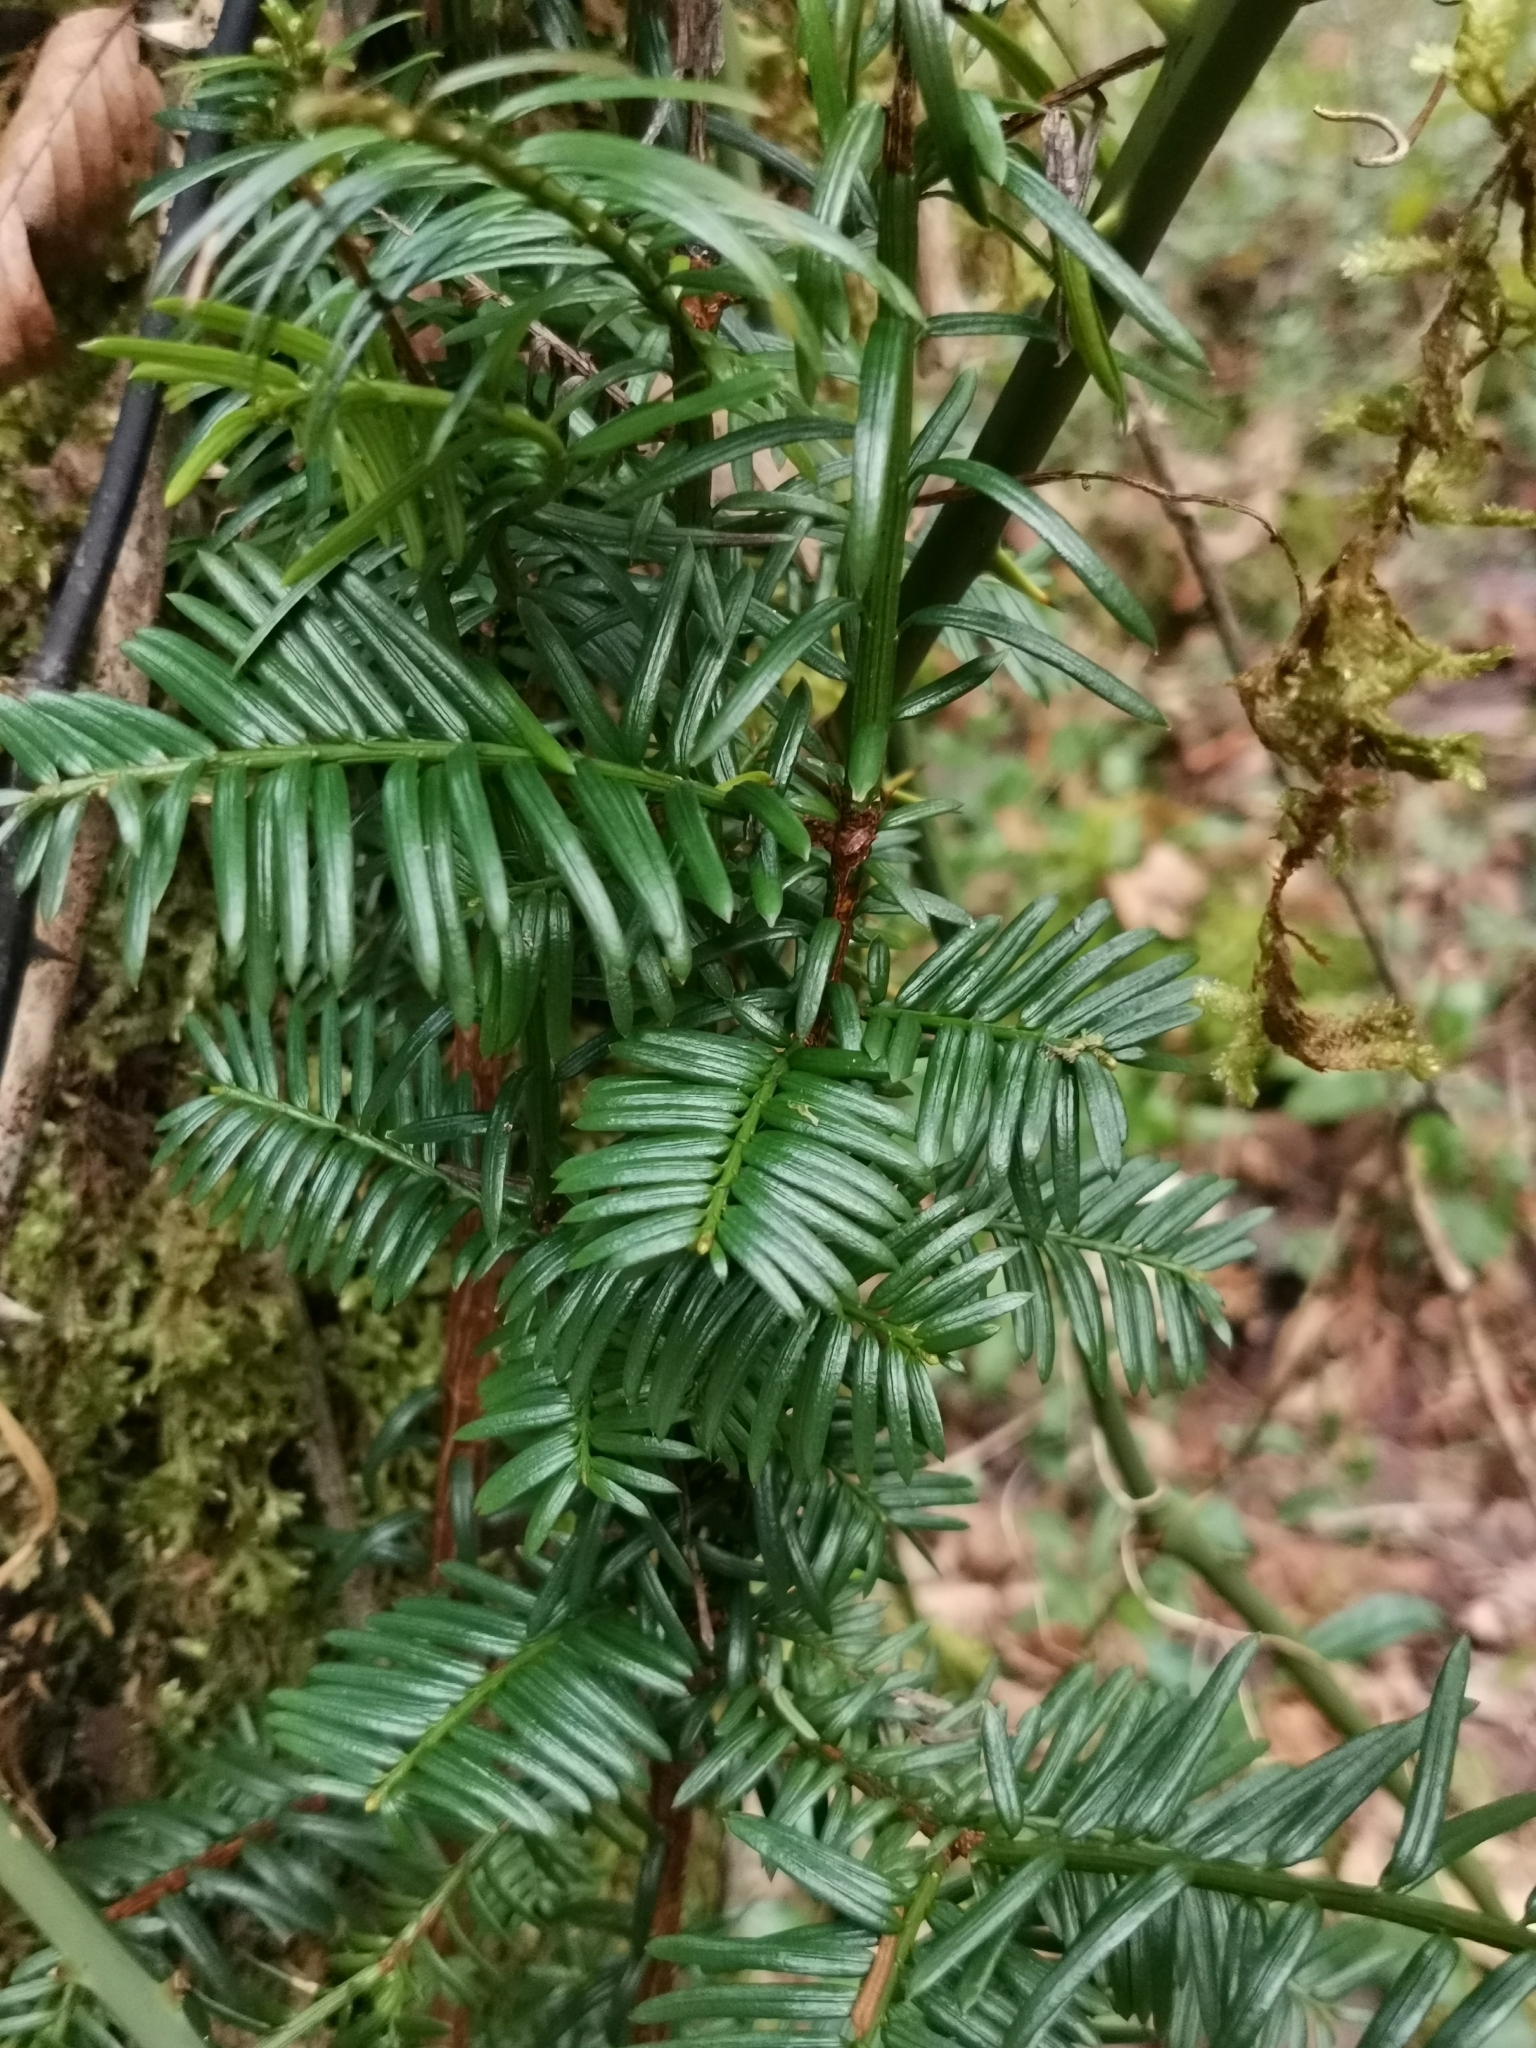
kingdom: Plantae
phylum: Tracheophyta
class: Pinopsida
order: Pinales
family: Taxaceae
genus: Taxus
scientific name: Taxus baccata
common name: Yew
